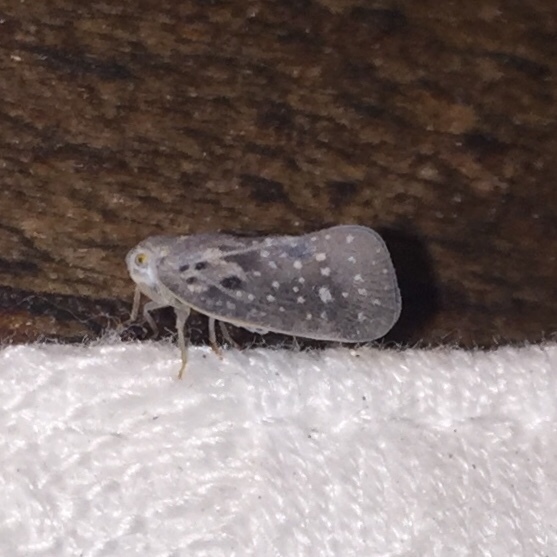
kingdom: Animalia
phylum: Arthropoda
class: Insecta
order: Hemiptera
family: Flatidae
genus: Metcalfa
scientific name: Metcalfa pruinosa
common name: Citrus flatid planthopper
